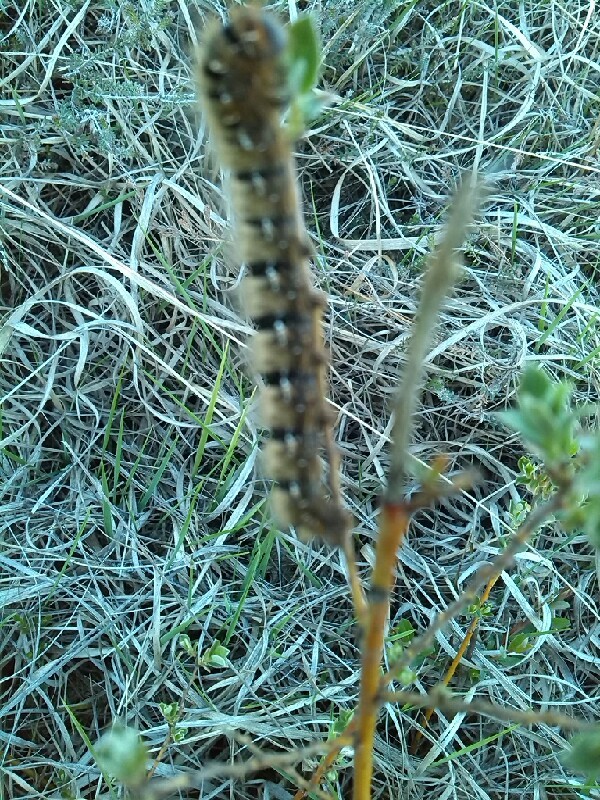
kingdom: Animalia
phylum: Arthropoda
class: Insecta
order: Lepidoptera
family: Lasiocampidae
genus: Lasiocampa
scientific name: Lasiocampa quercus
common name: Oak eggar
